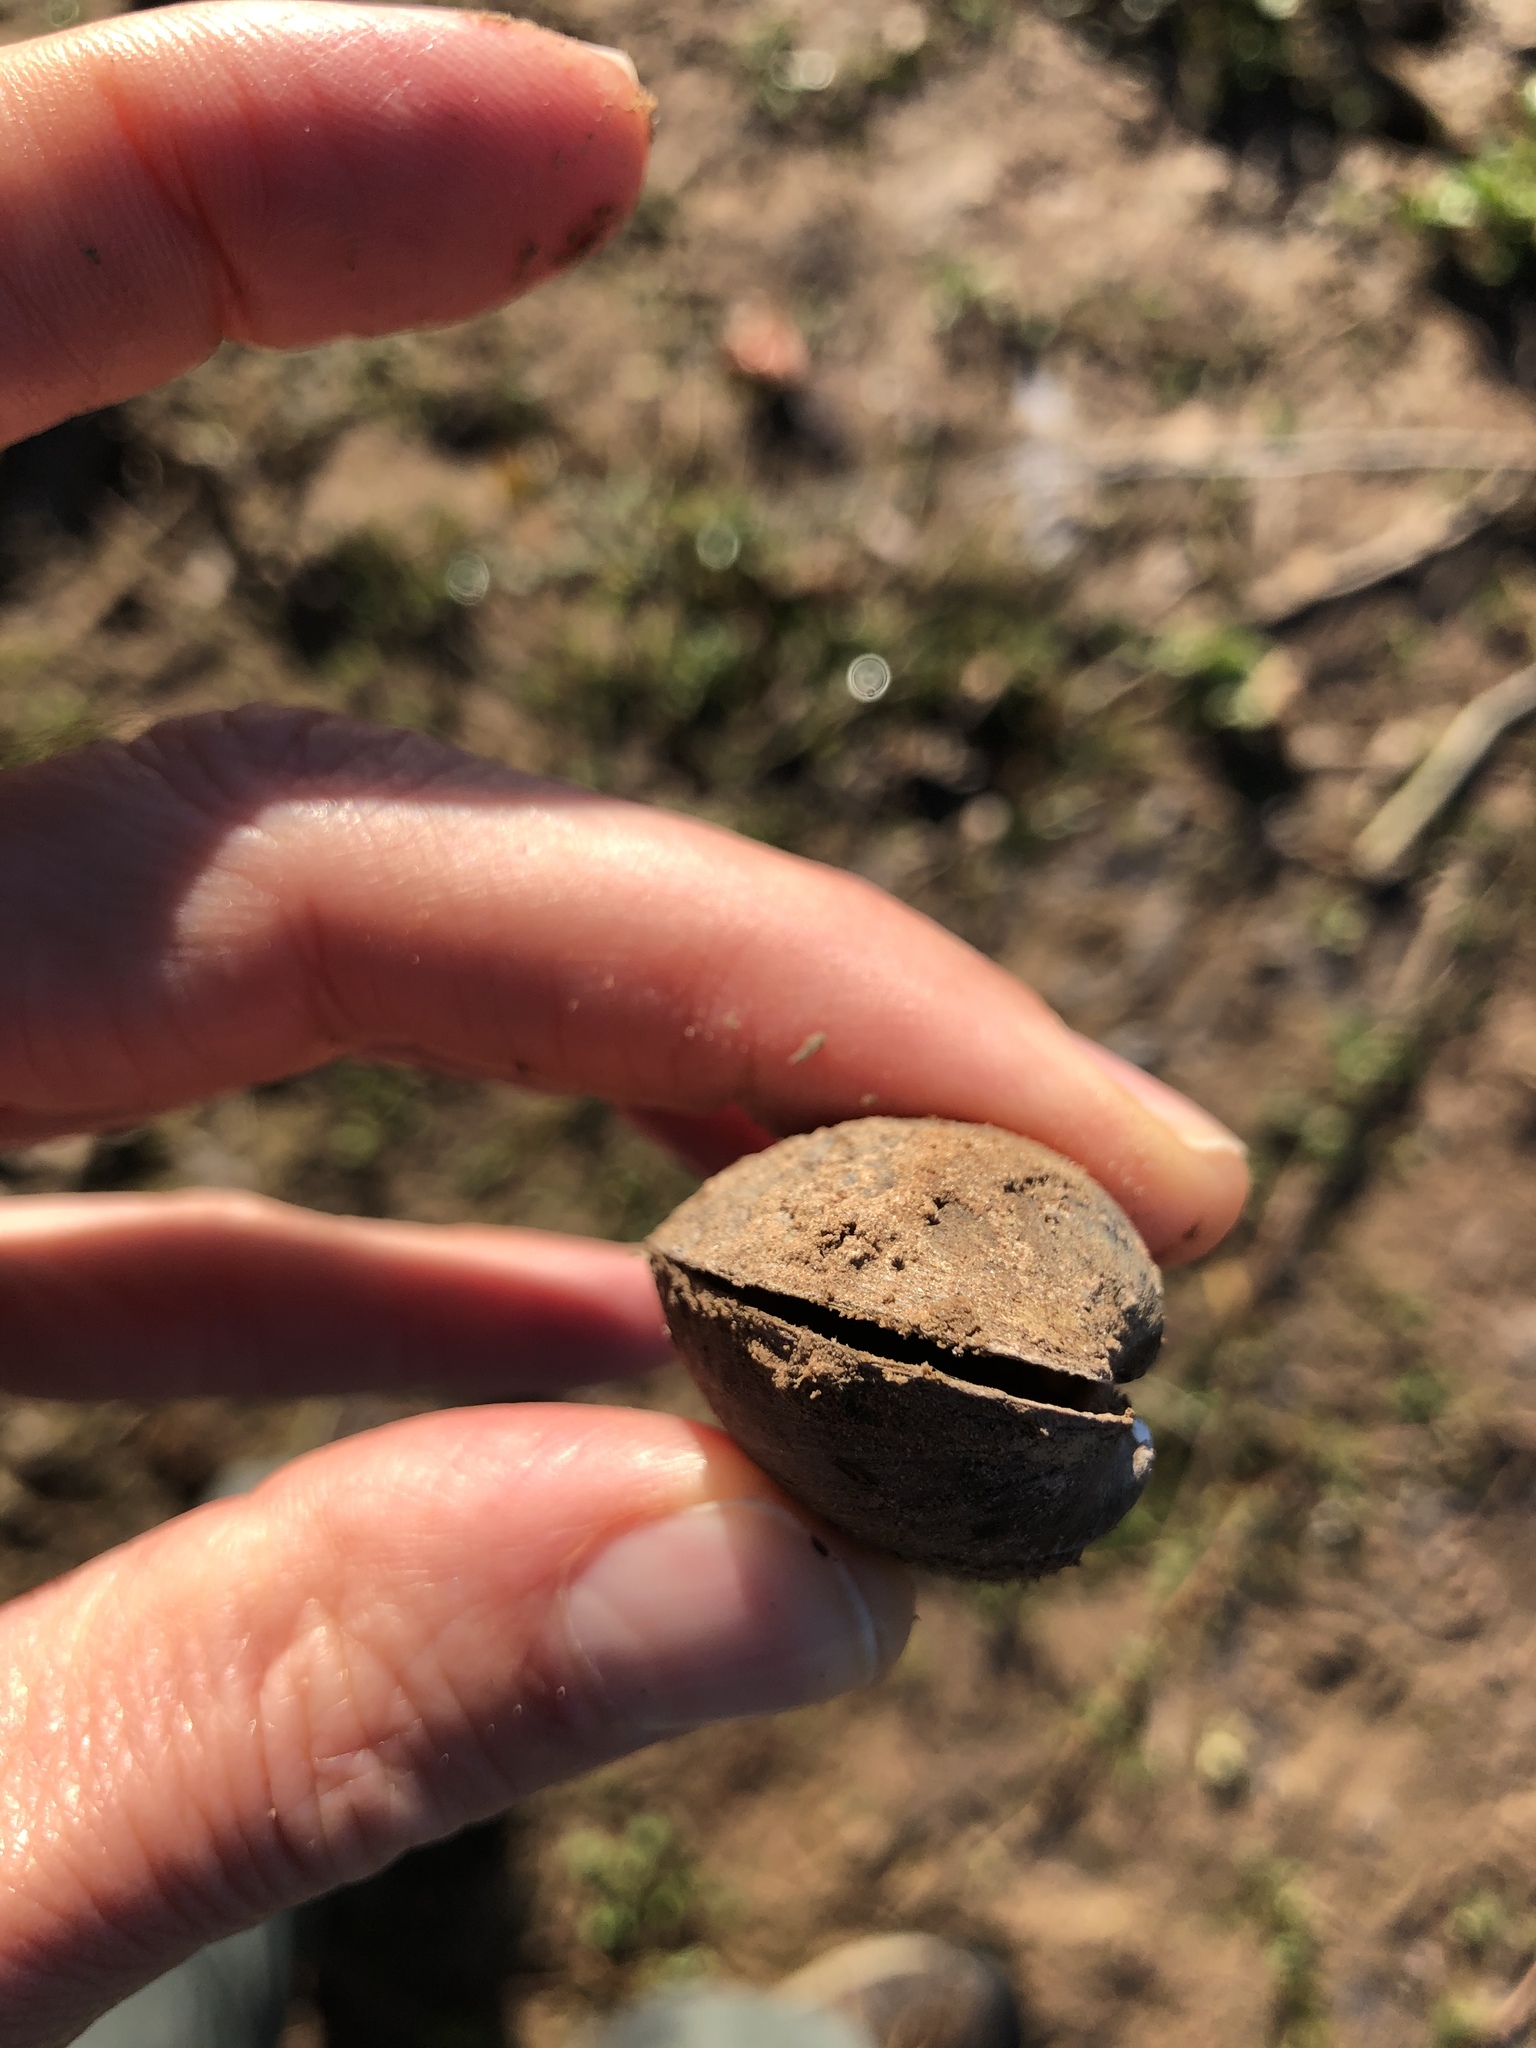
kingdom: Animalia
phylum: Mollusca
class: Bivalvia
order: Unionida
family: Unionidae
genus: Toxolasma
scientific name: Toxolasma texasiense
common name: Texas lilliput
